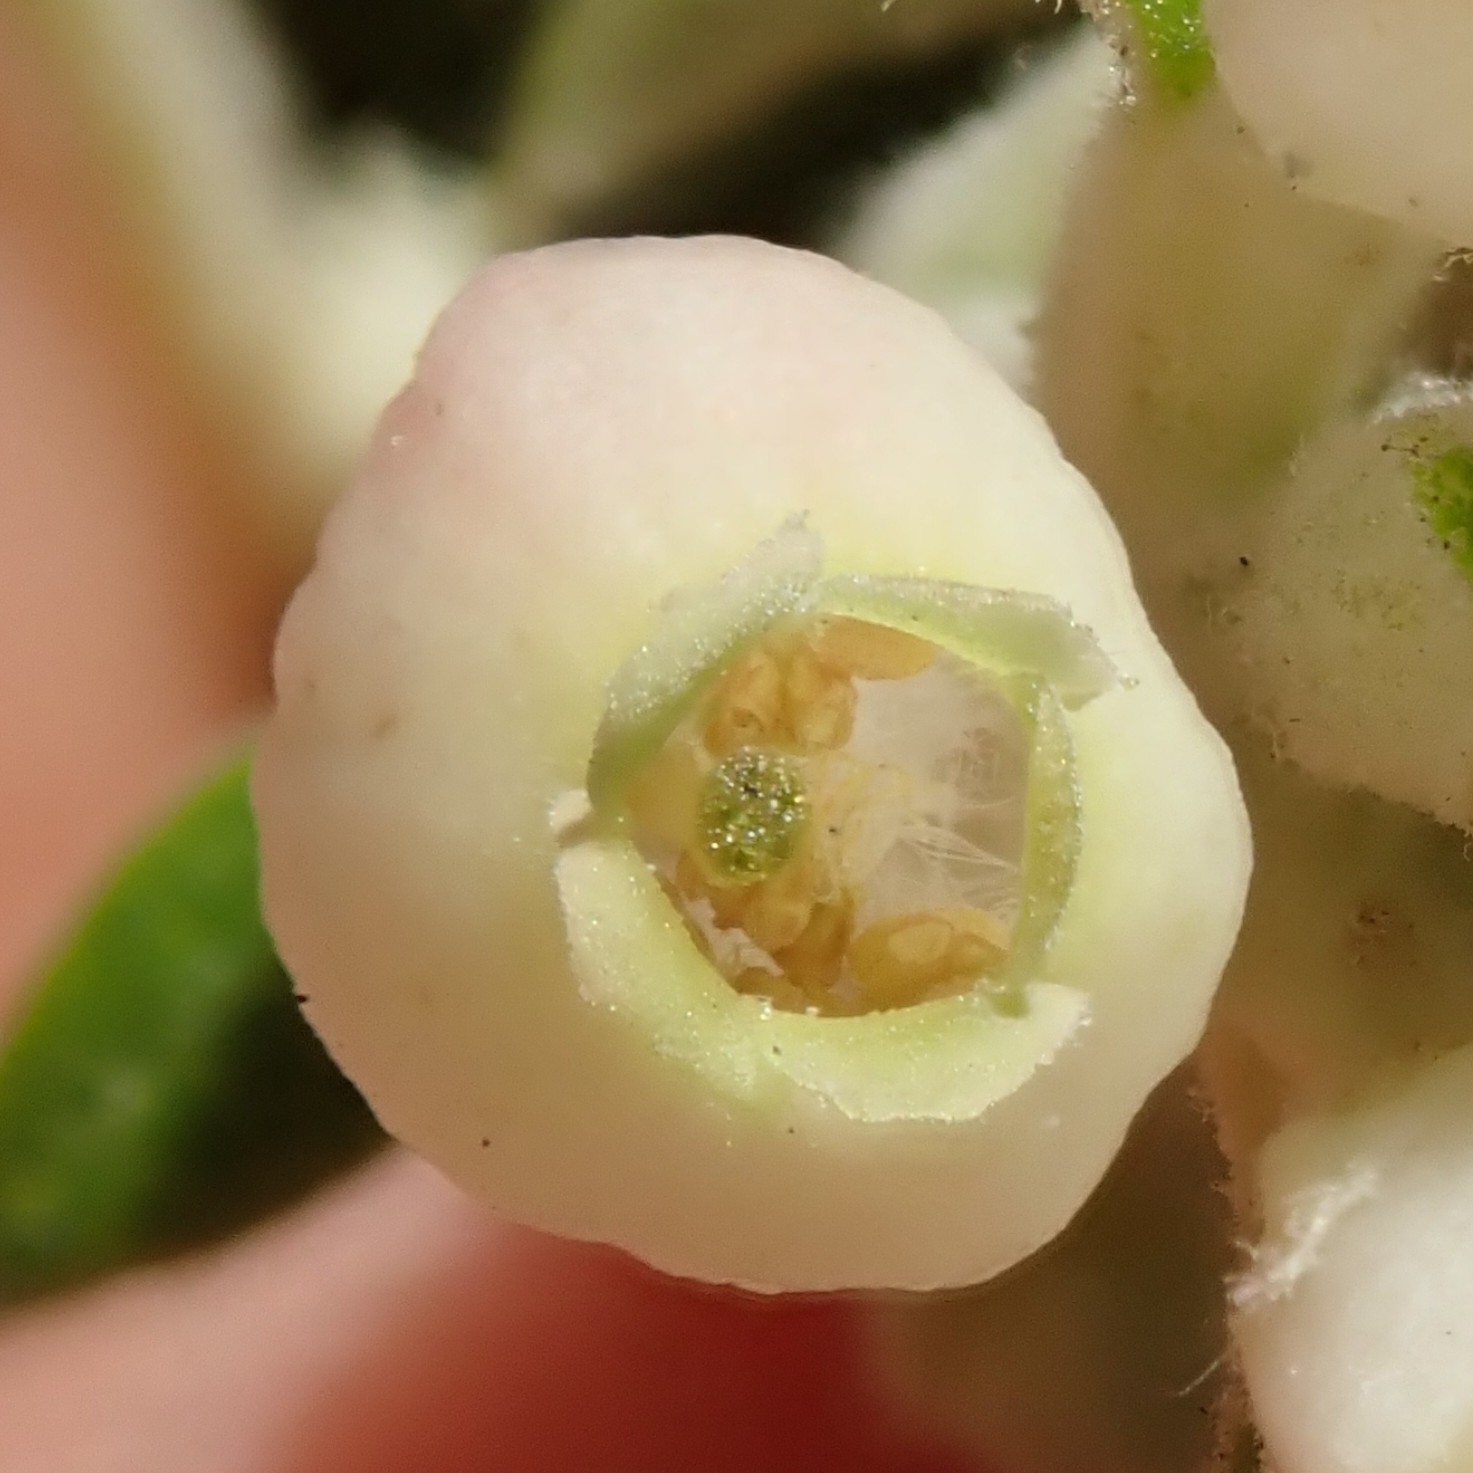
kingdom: Plantae
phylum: Tracheophyta
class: Magnoliopsida
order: Ericales
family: Ericaceae
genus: Arctostaphylos
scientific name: Arctostaphylos bicolor
